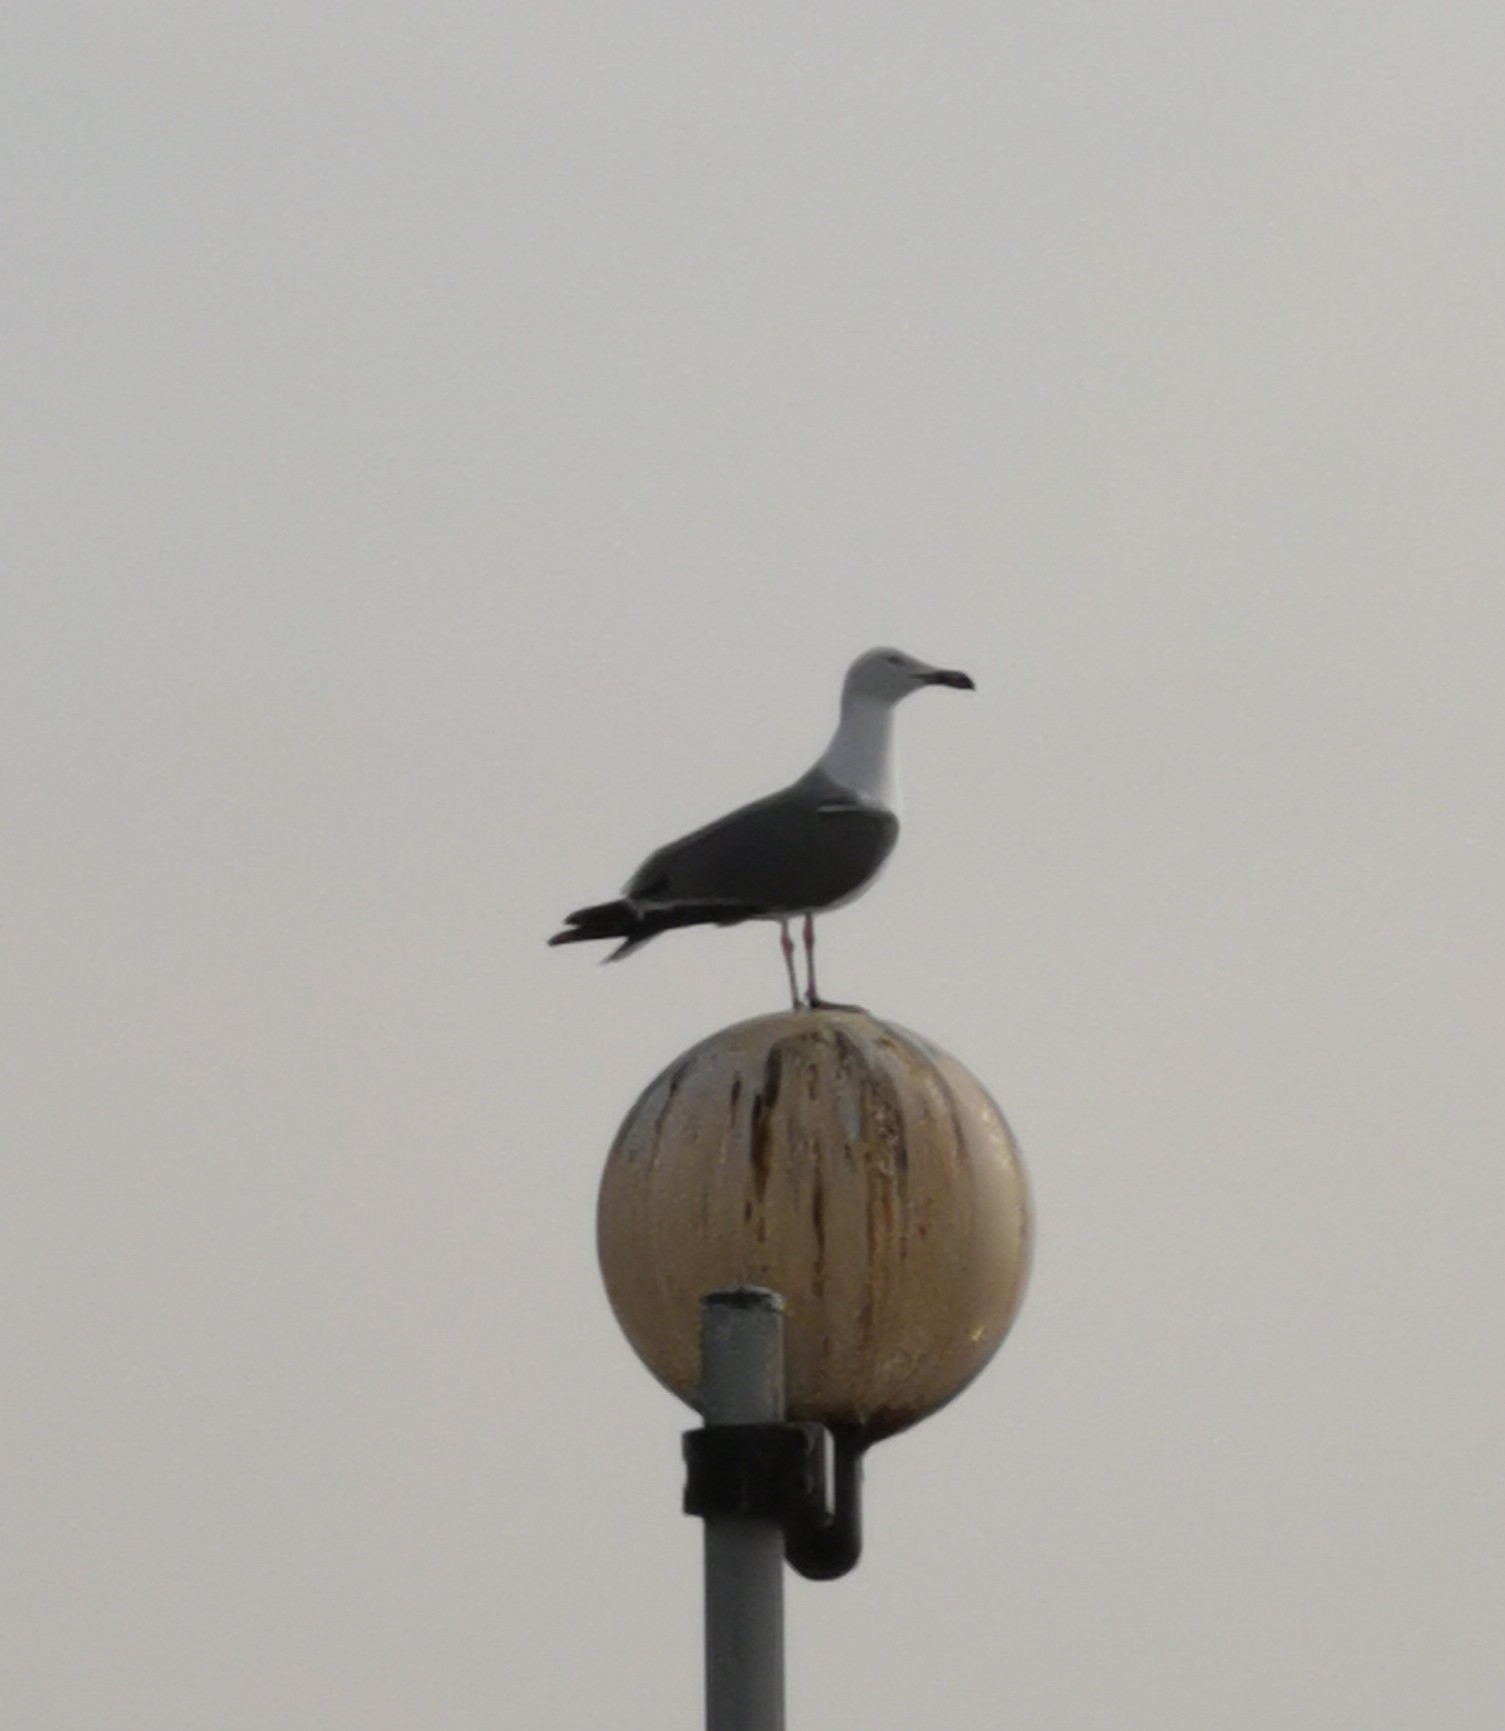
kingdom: Animalia
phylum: Chordata
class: Aves
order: Charadriiformes
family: Laridae
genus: Larus
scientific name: Larus michahellis
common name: Yellow-legged gull
